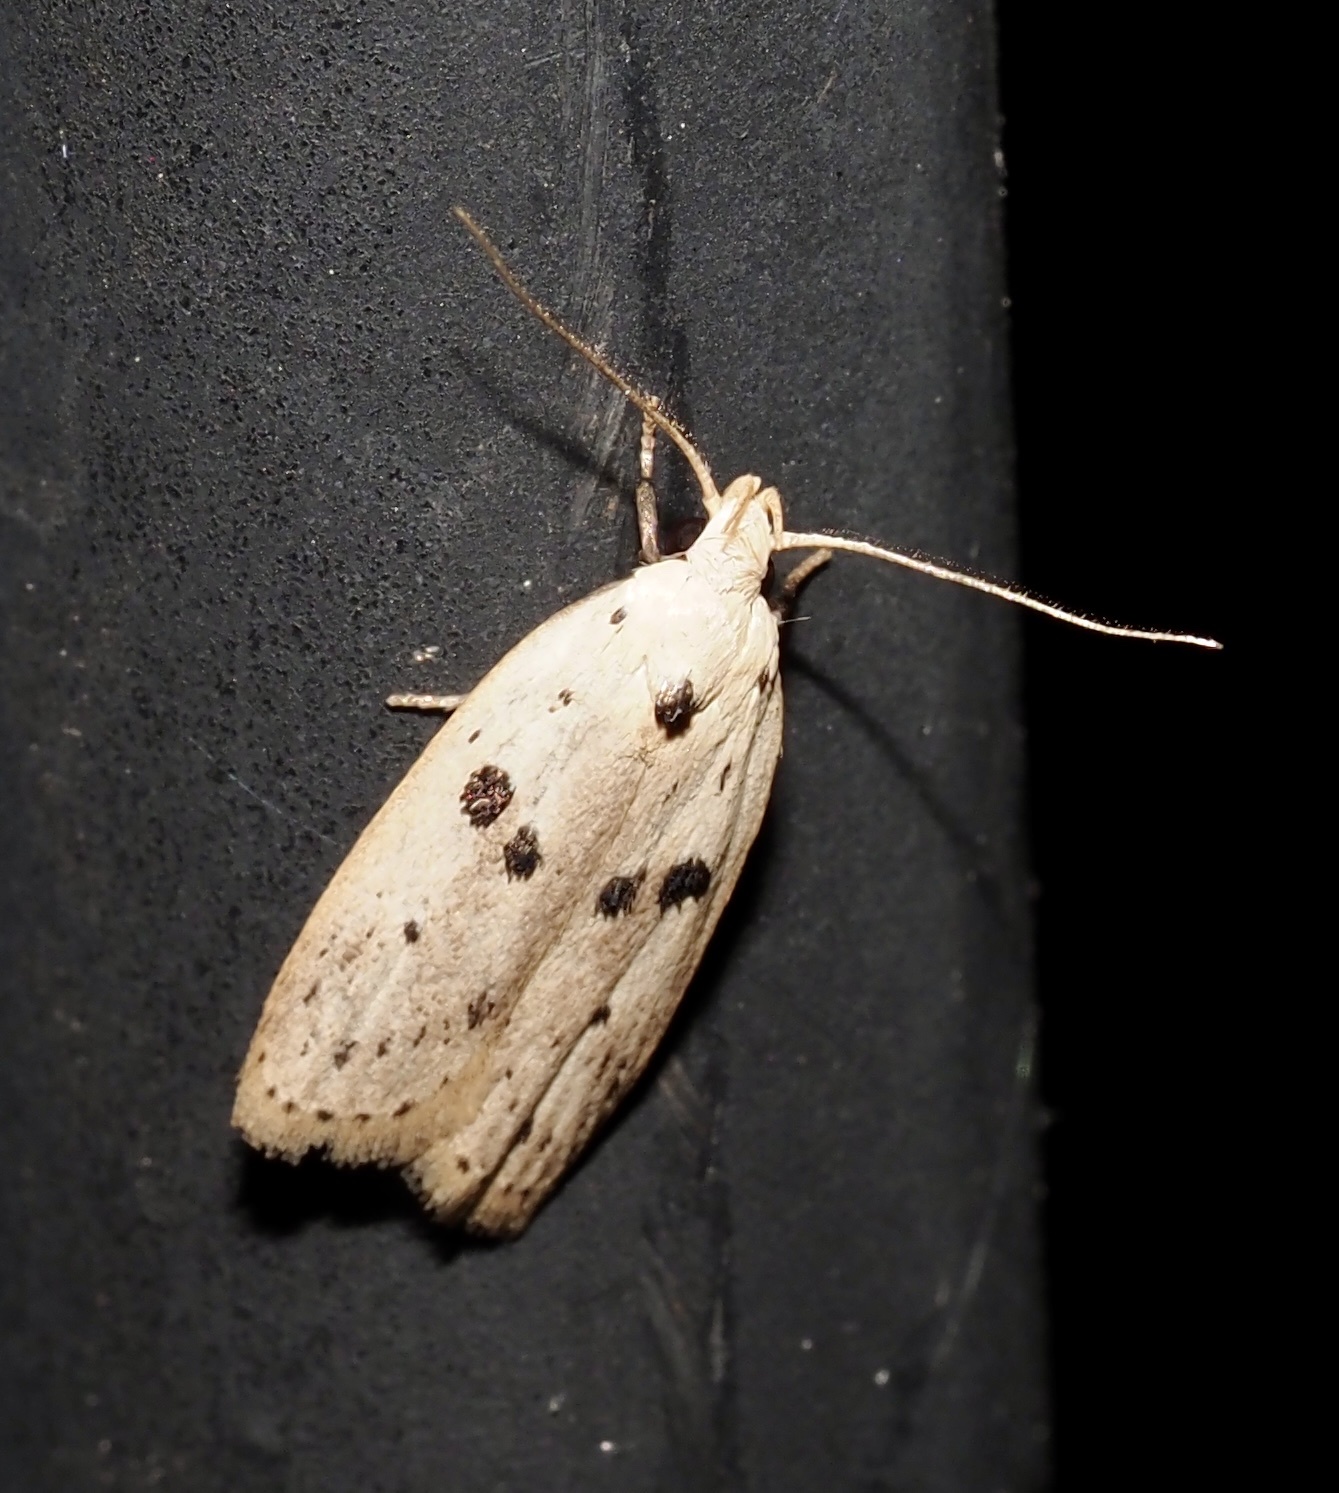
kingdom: Animalia
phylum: Arthropoda
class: Insecta
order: Lepidoptera
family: Peleopodidae
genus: Scythropiodes
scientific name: Scythropiodes issikii
